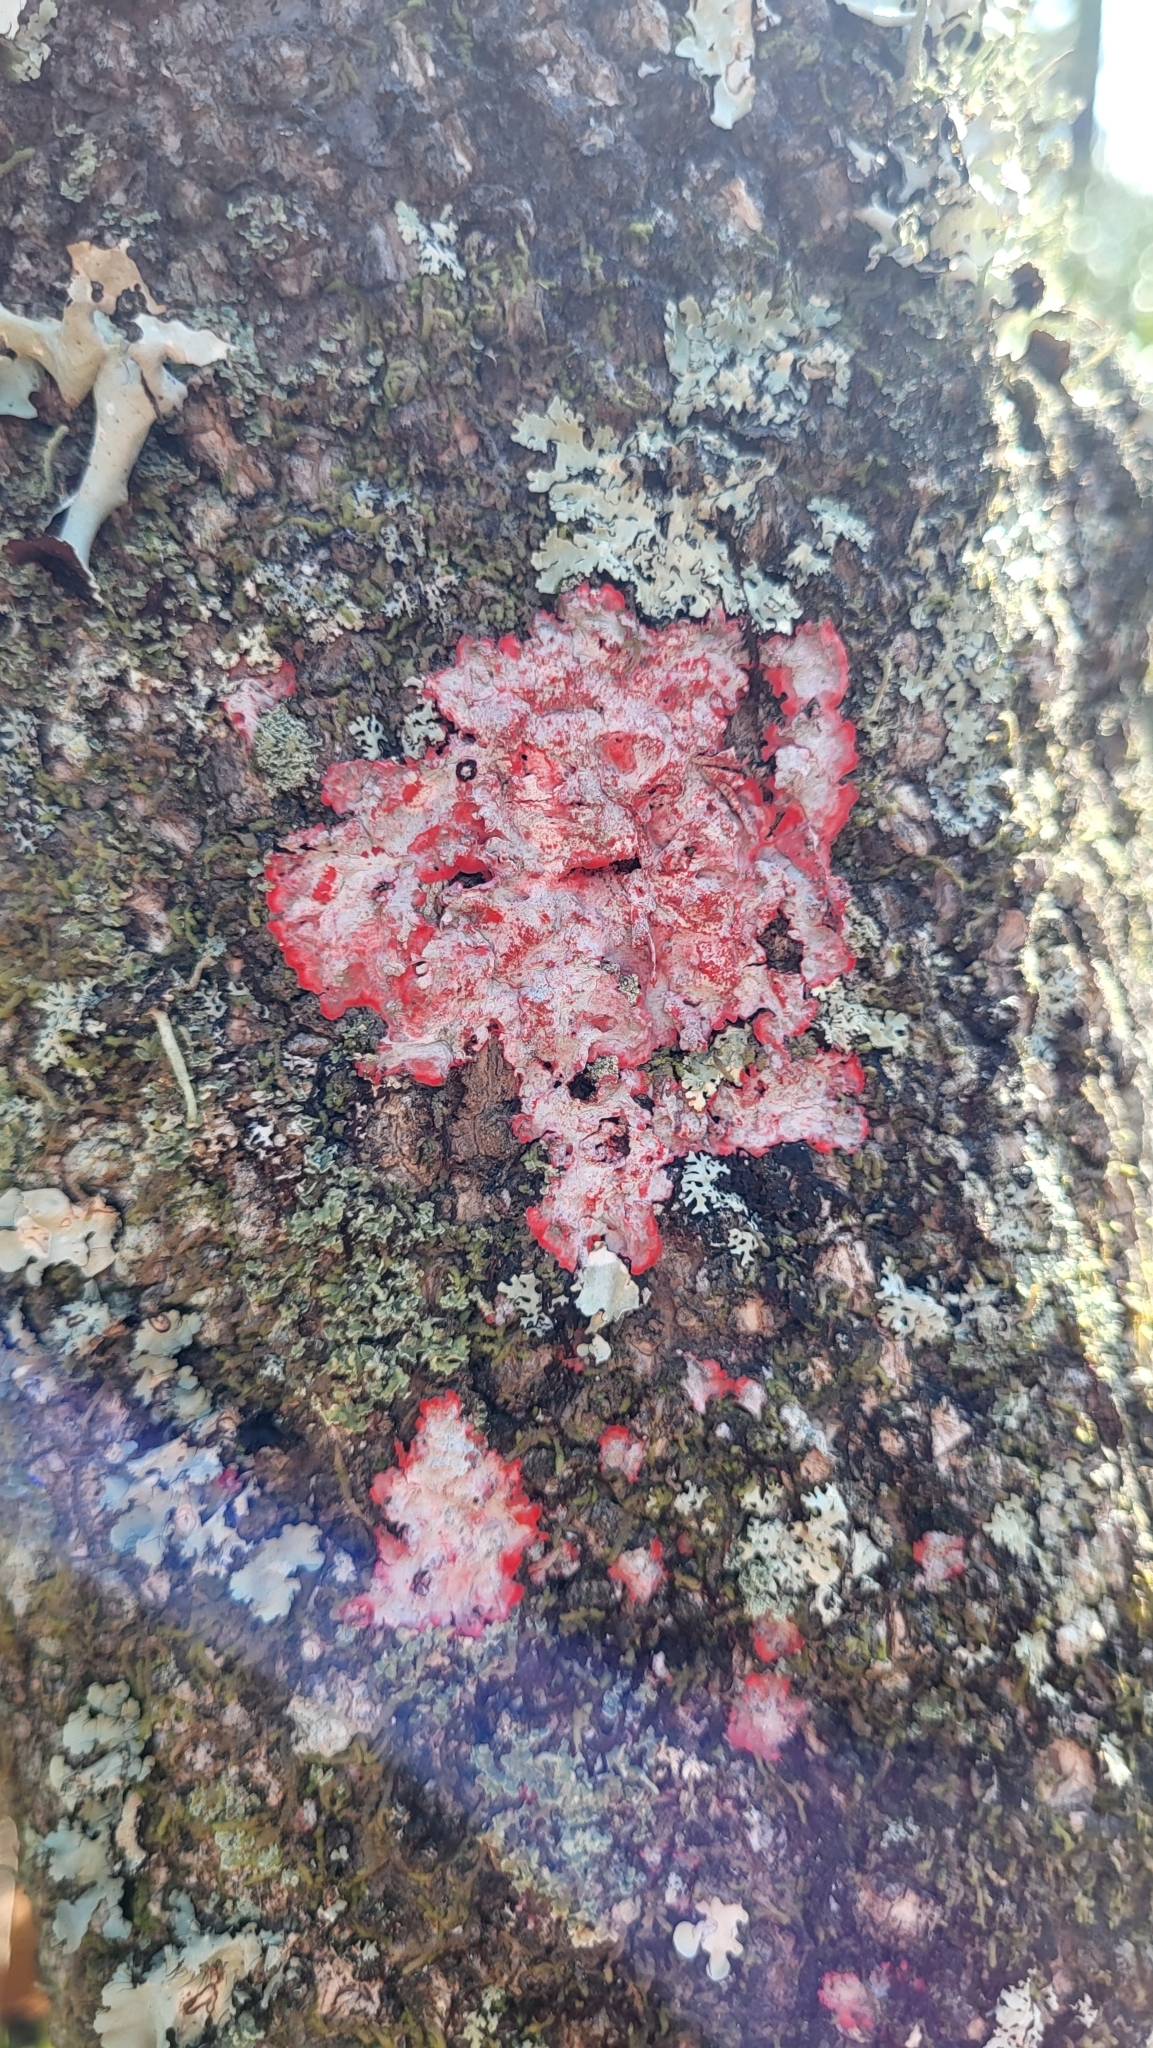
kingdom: Fungi
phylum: Ascomycota
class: Arthoniomycetes
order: Arthoniales
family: Arthoniaceae
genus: Herpothallon
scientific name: Herpothallon rubrocinctum
